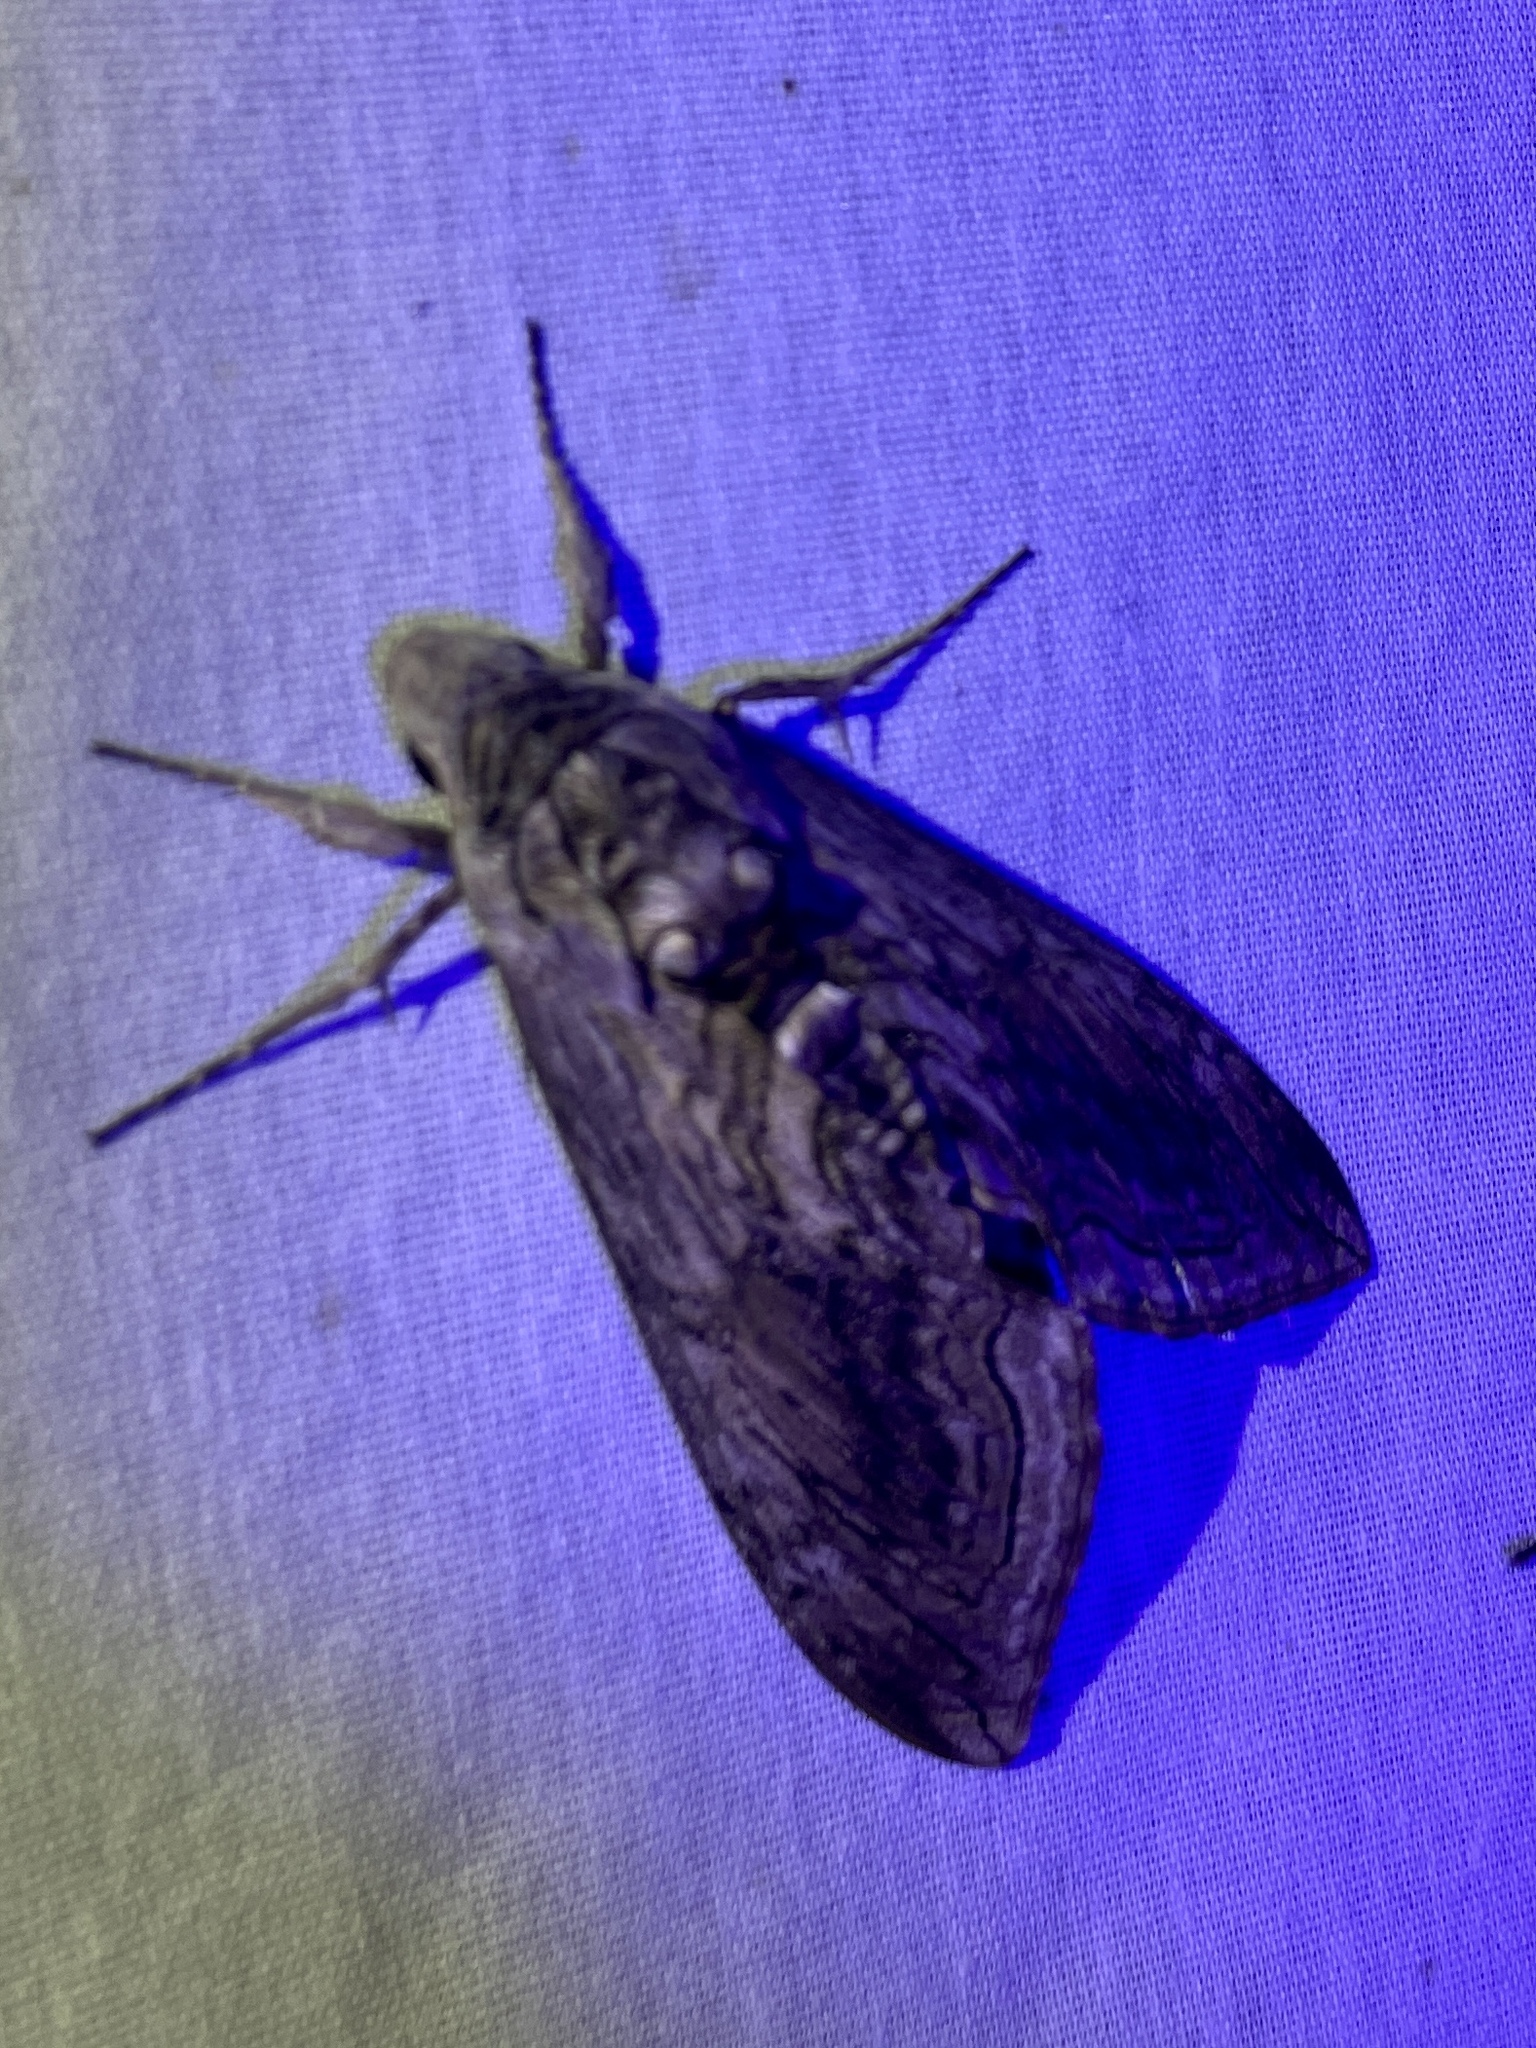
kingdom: Animalia
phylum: Arthropoda
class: Insecta
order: Lepidoptera
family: Sphingidae
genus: Manduca
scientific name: Manduca quinquemaculatus
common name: Five-spotted hawk-moth
